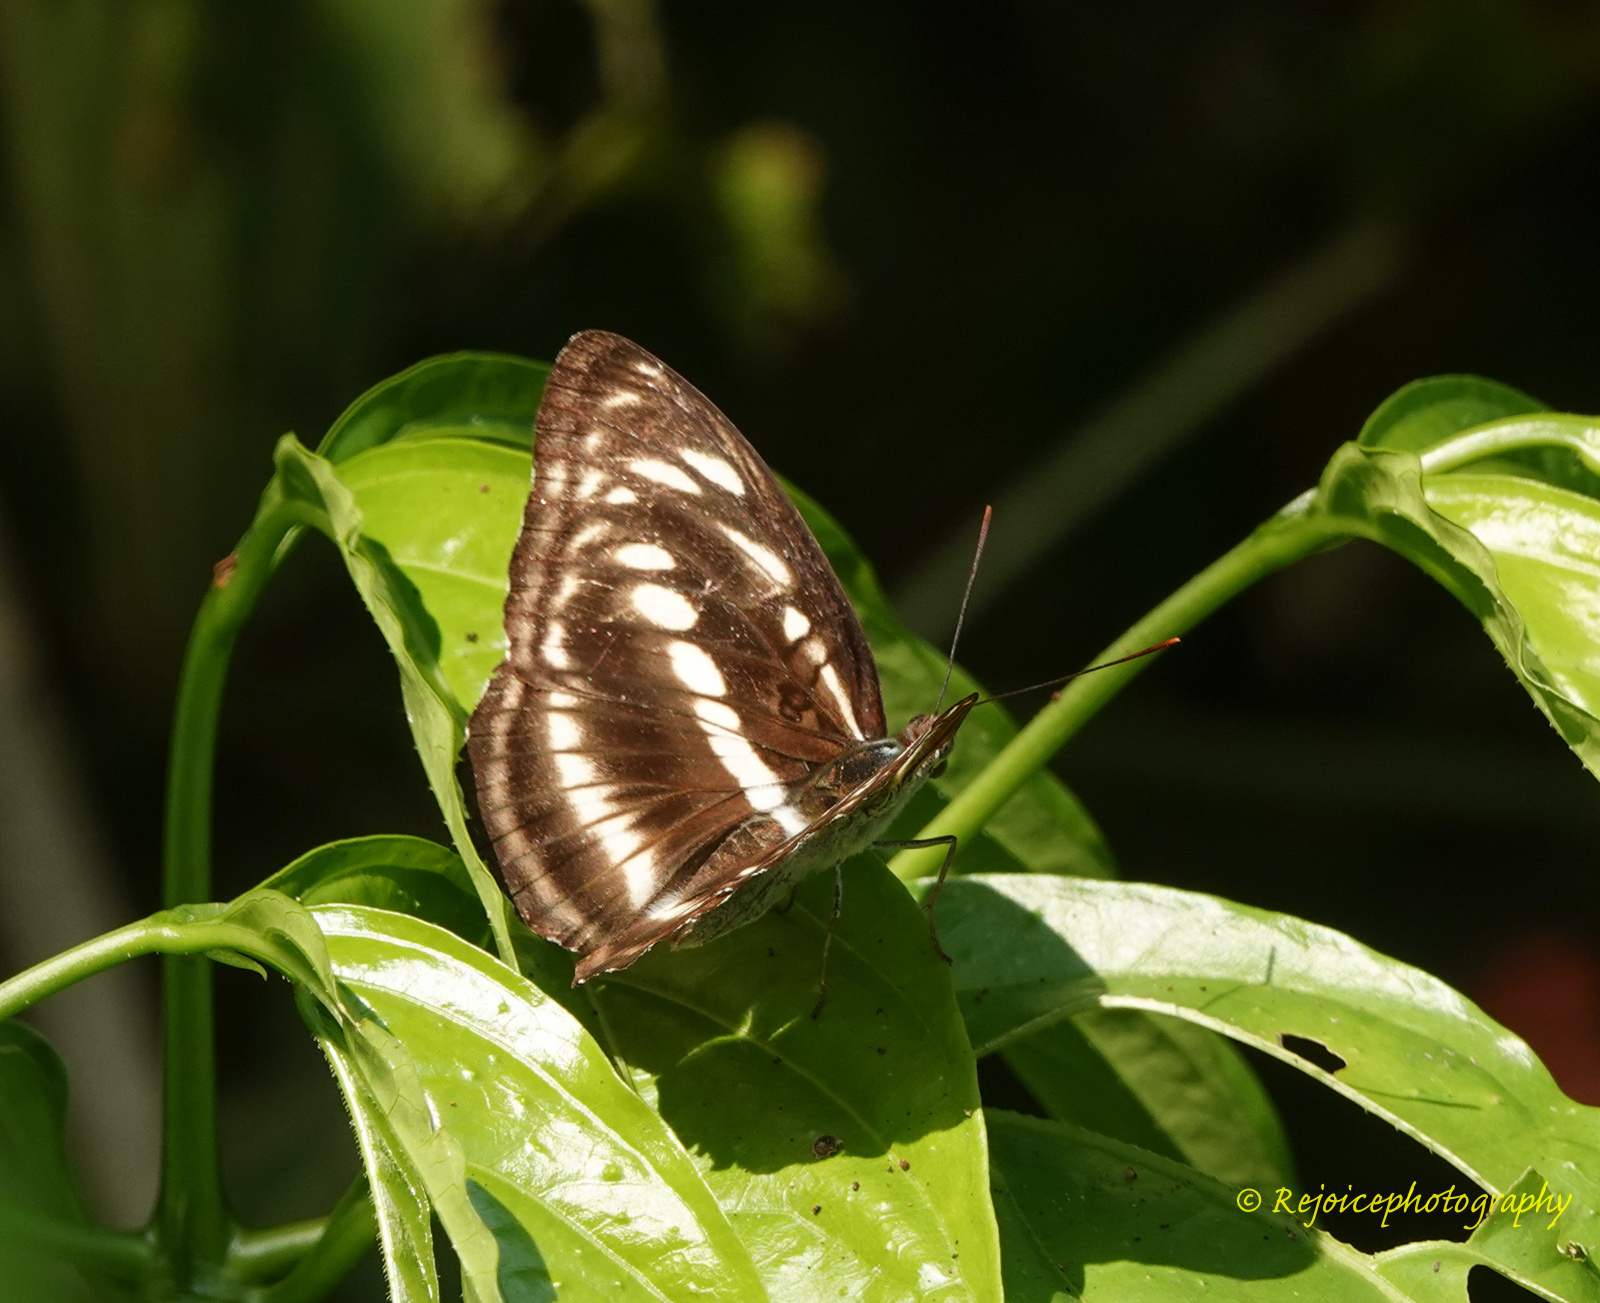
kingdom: Animalia
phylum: Arthropoda
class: Insecta
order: Lepidoptera
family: Nymphalidae
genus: Parathyma
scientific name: Parathyma selenophora
